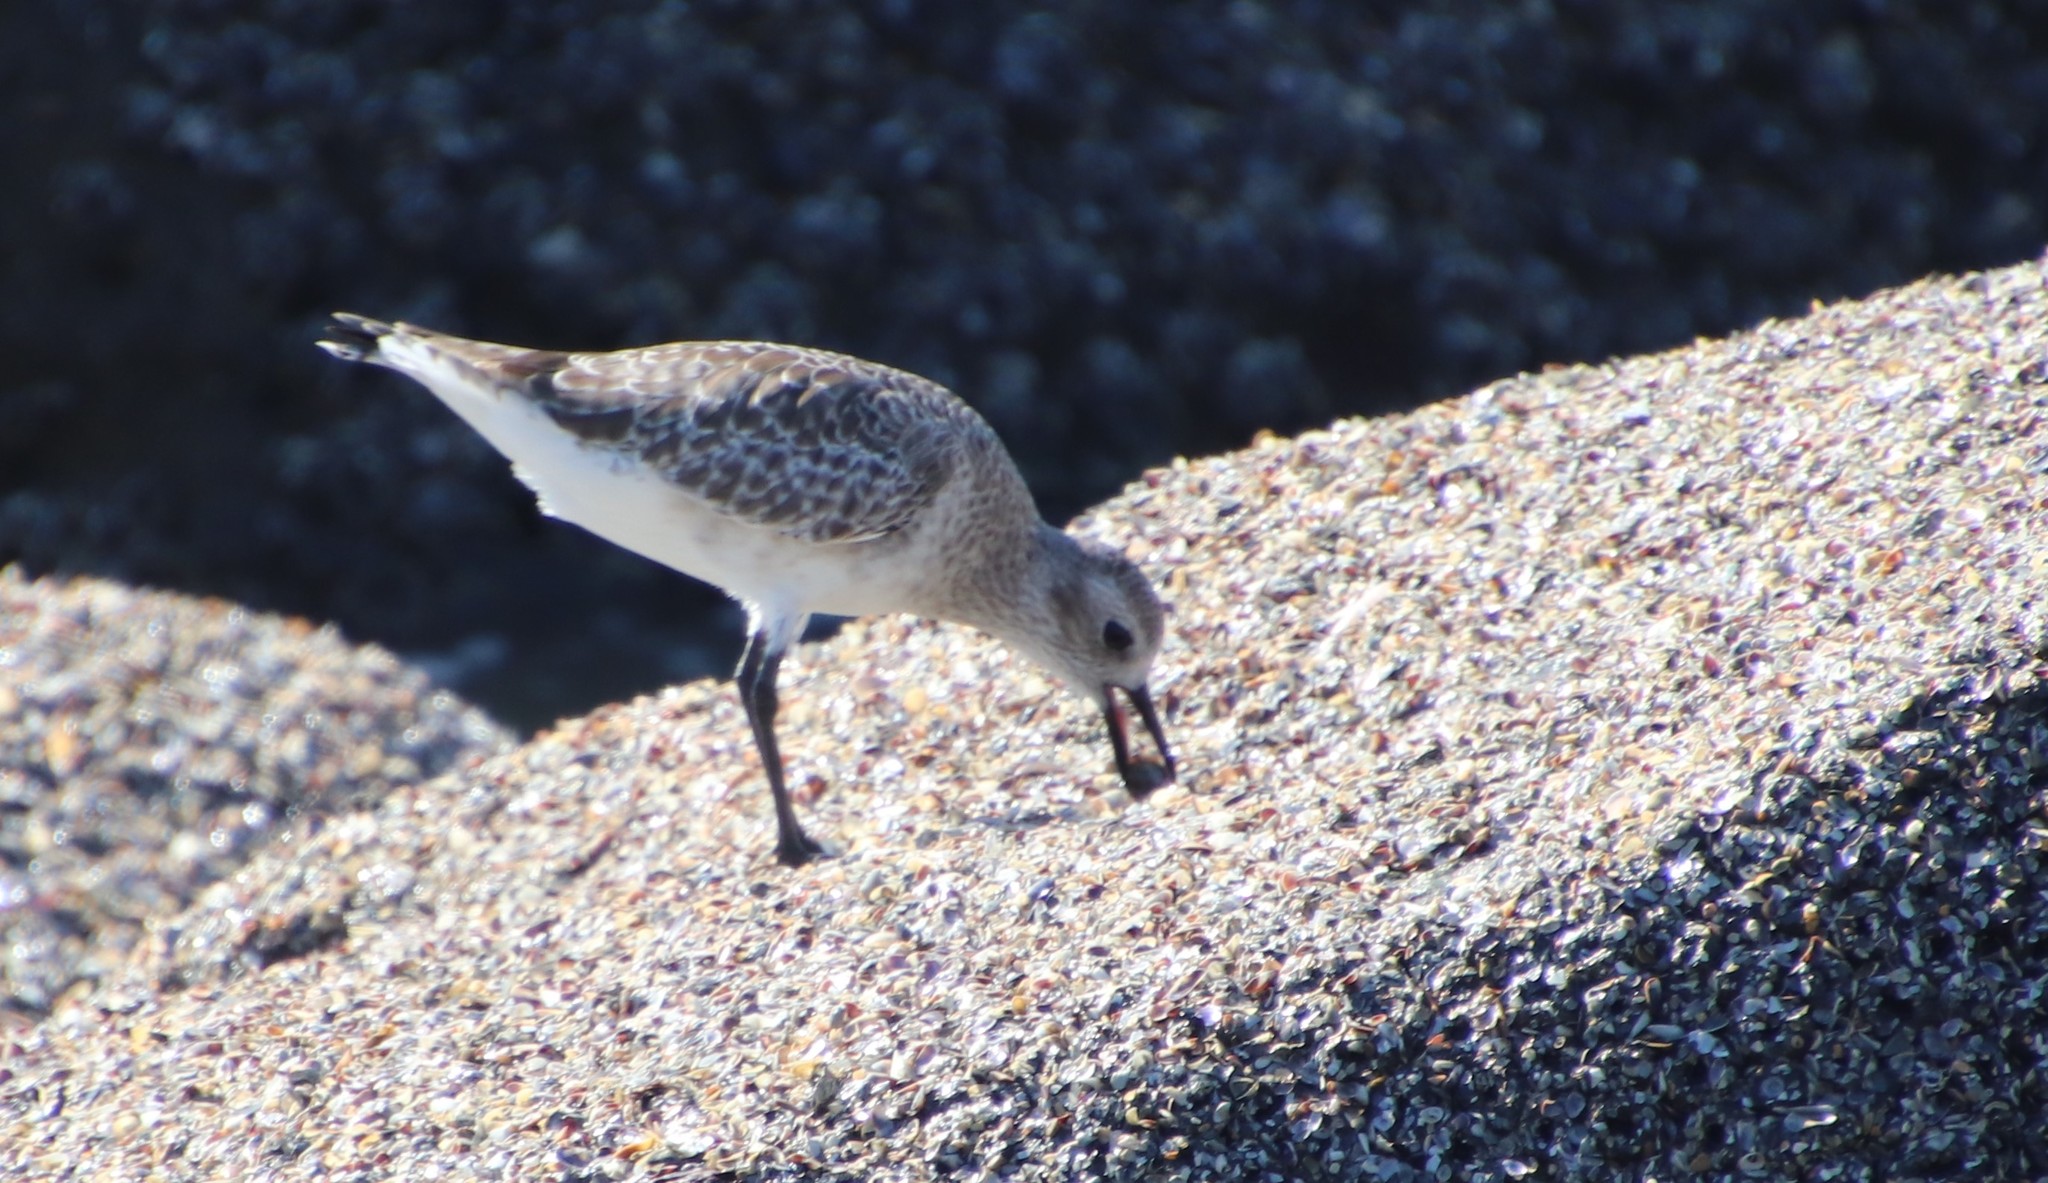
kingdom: Animalia
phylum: Chordata
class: Aves
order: Charadriiformes
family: Charadriidae
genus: Pluvialis
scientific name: Pluvialis squatarola
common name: Grey plover
